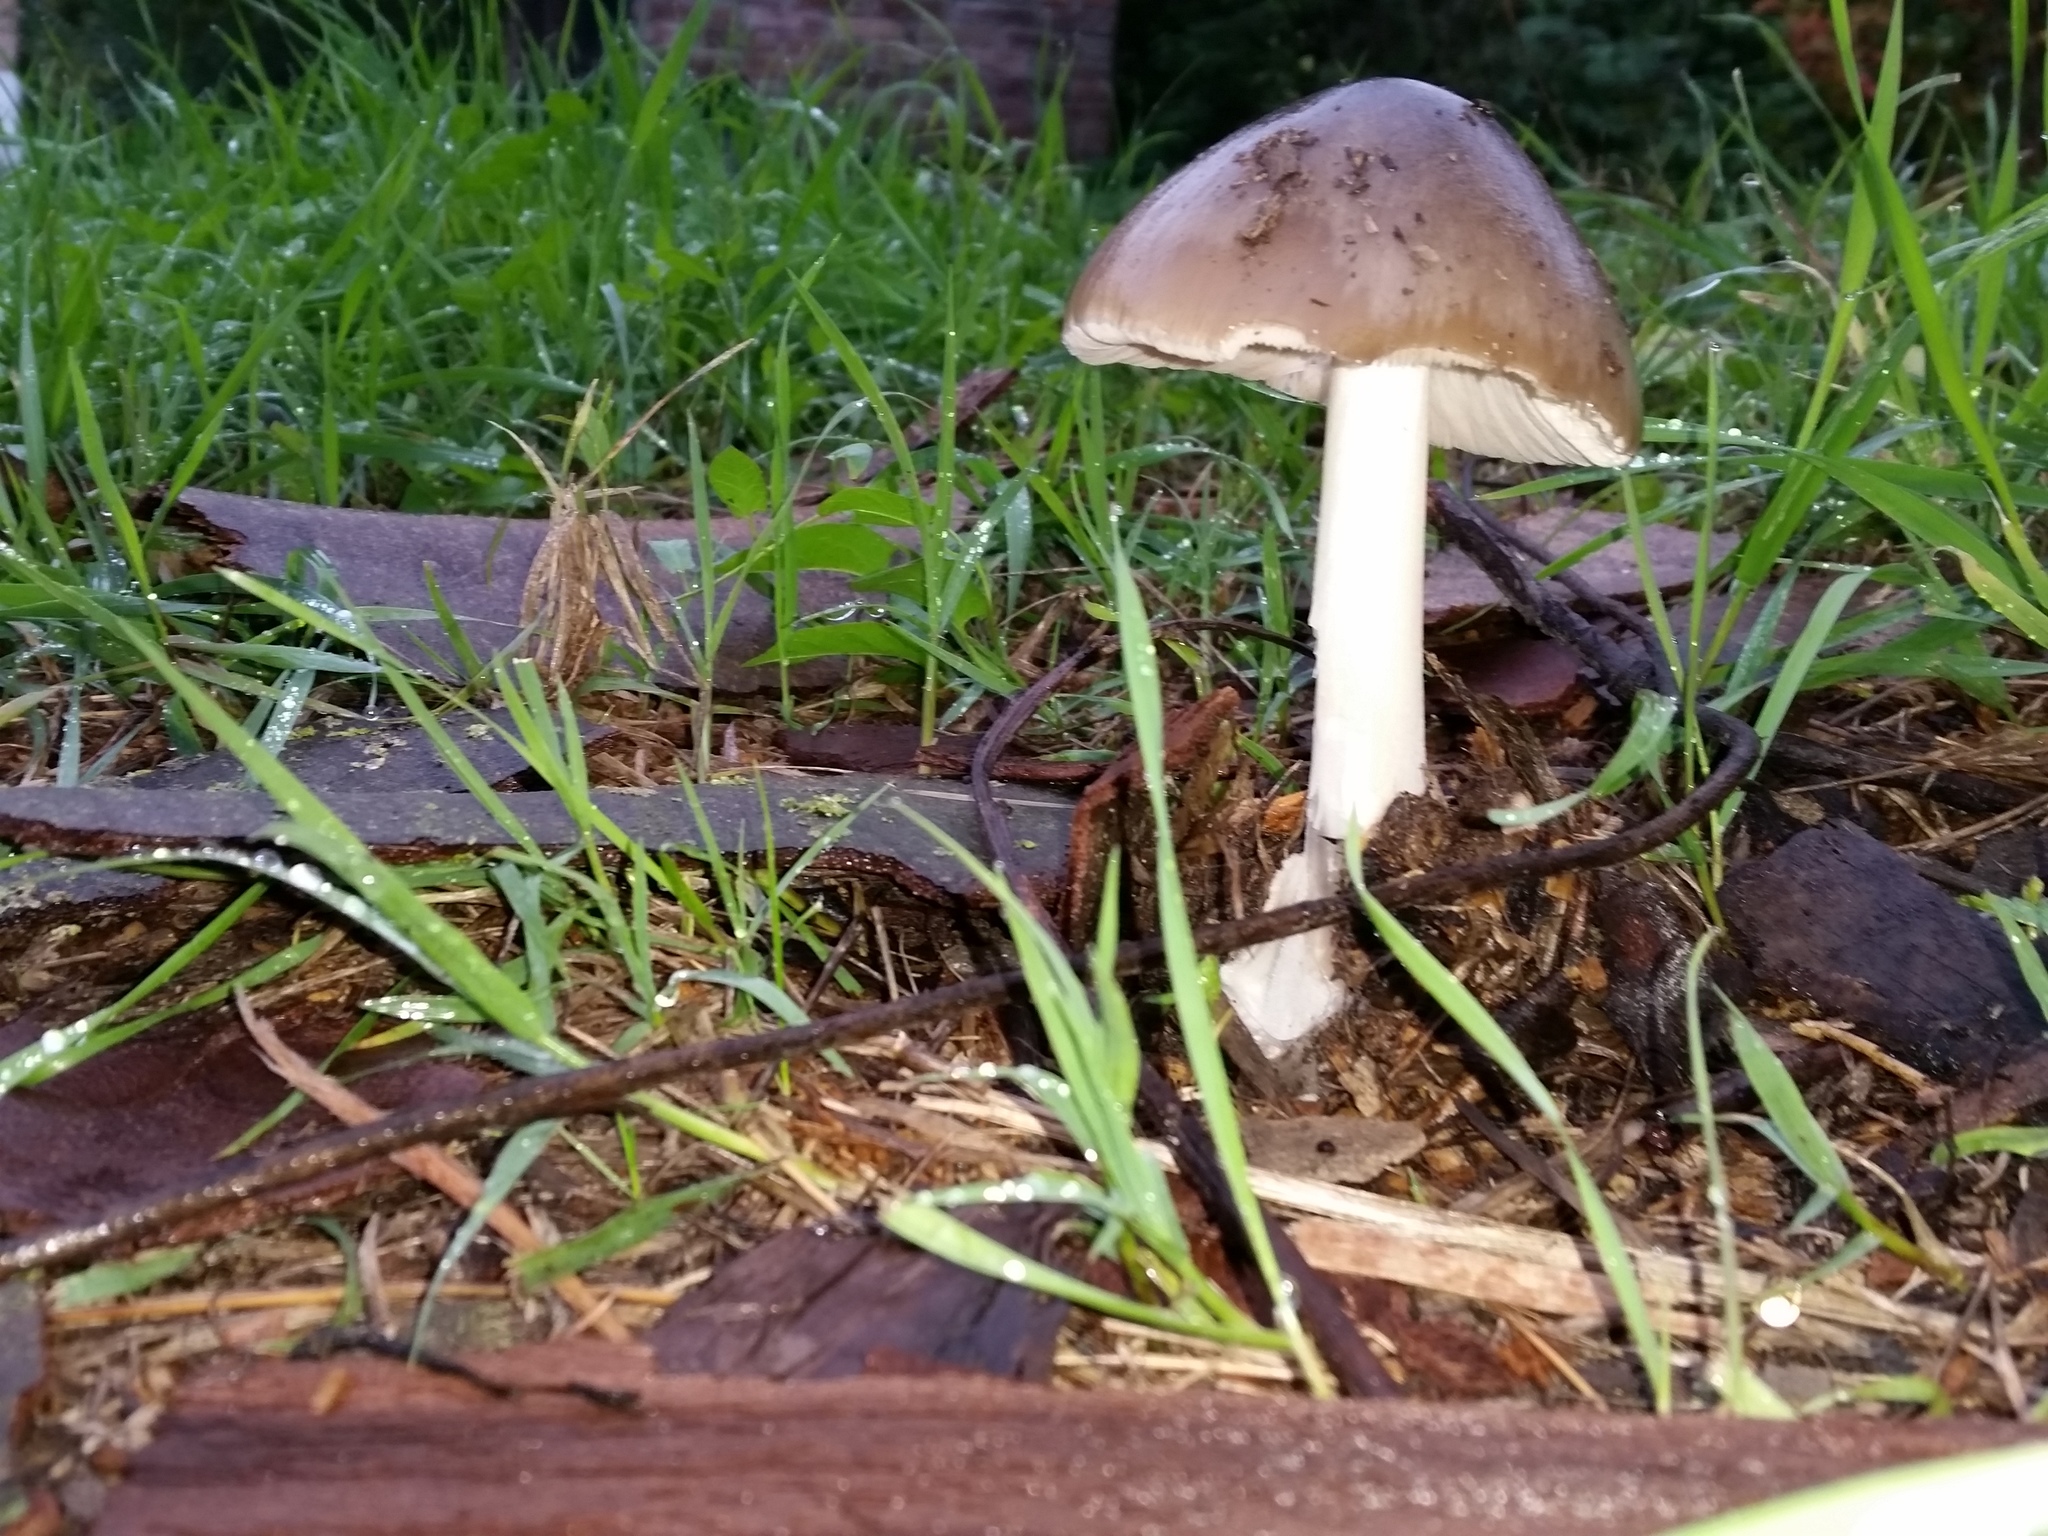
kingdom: Fungi
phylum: Basidiomycota
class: Agaricomycetes
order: Agaricales
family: Pluteaceae
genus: Volvopluteus
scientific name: Volvopluteus gloiocephalus
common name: Stubble rosegill
